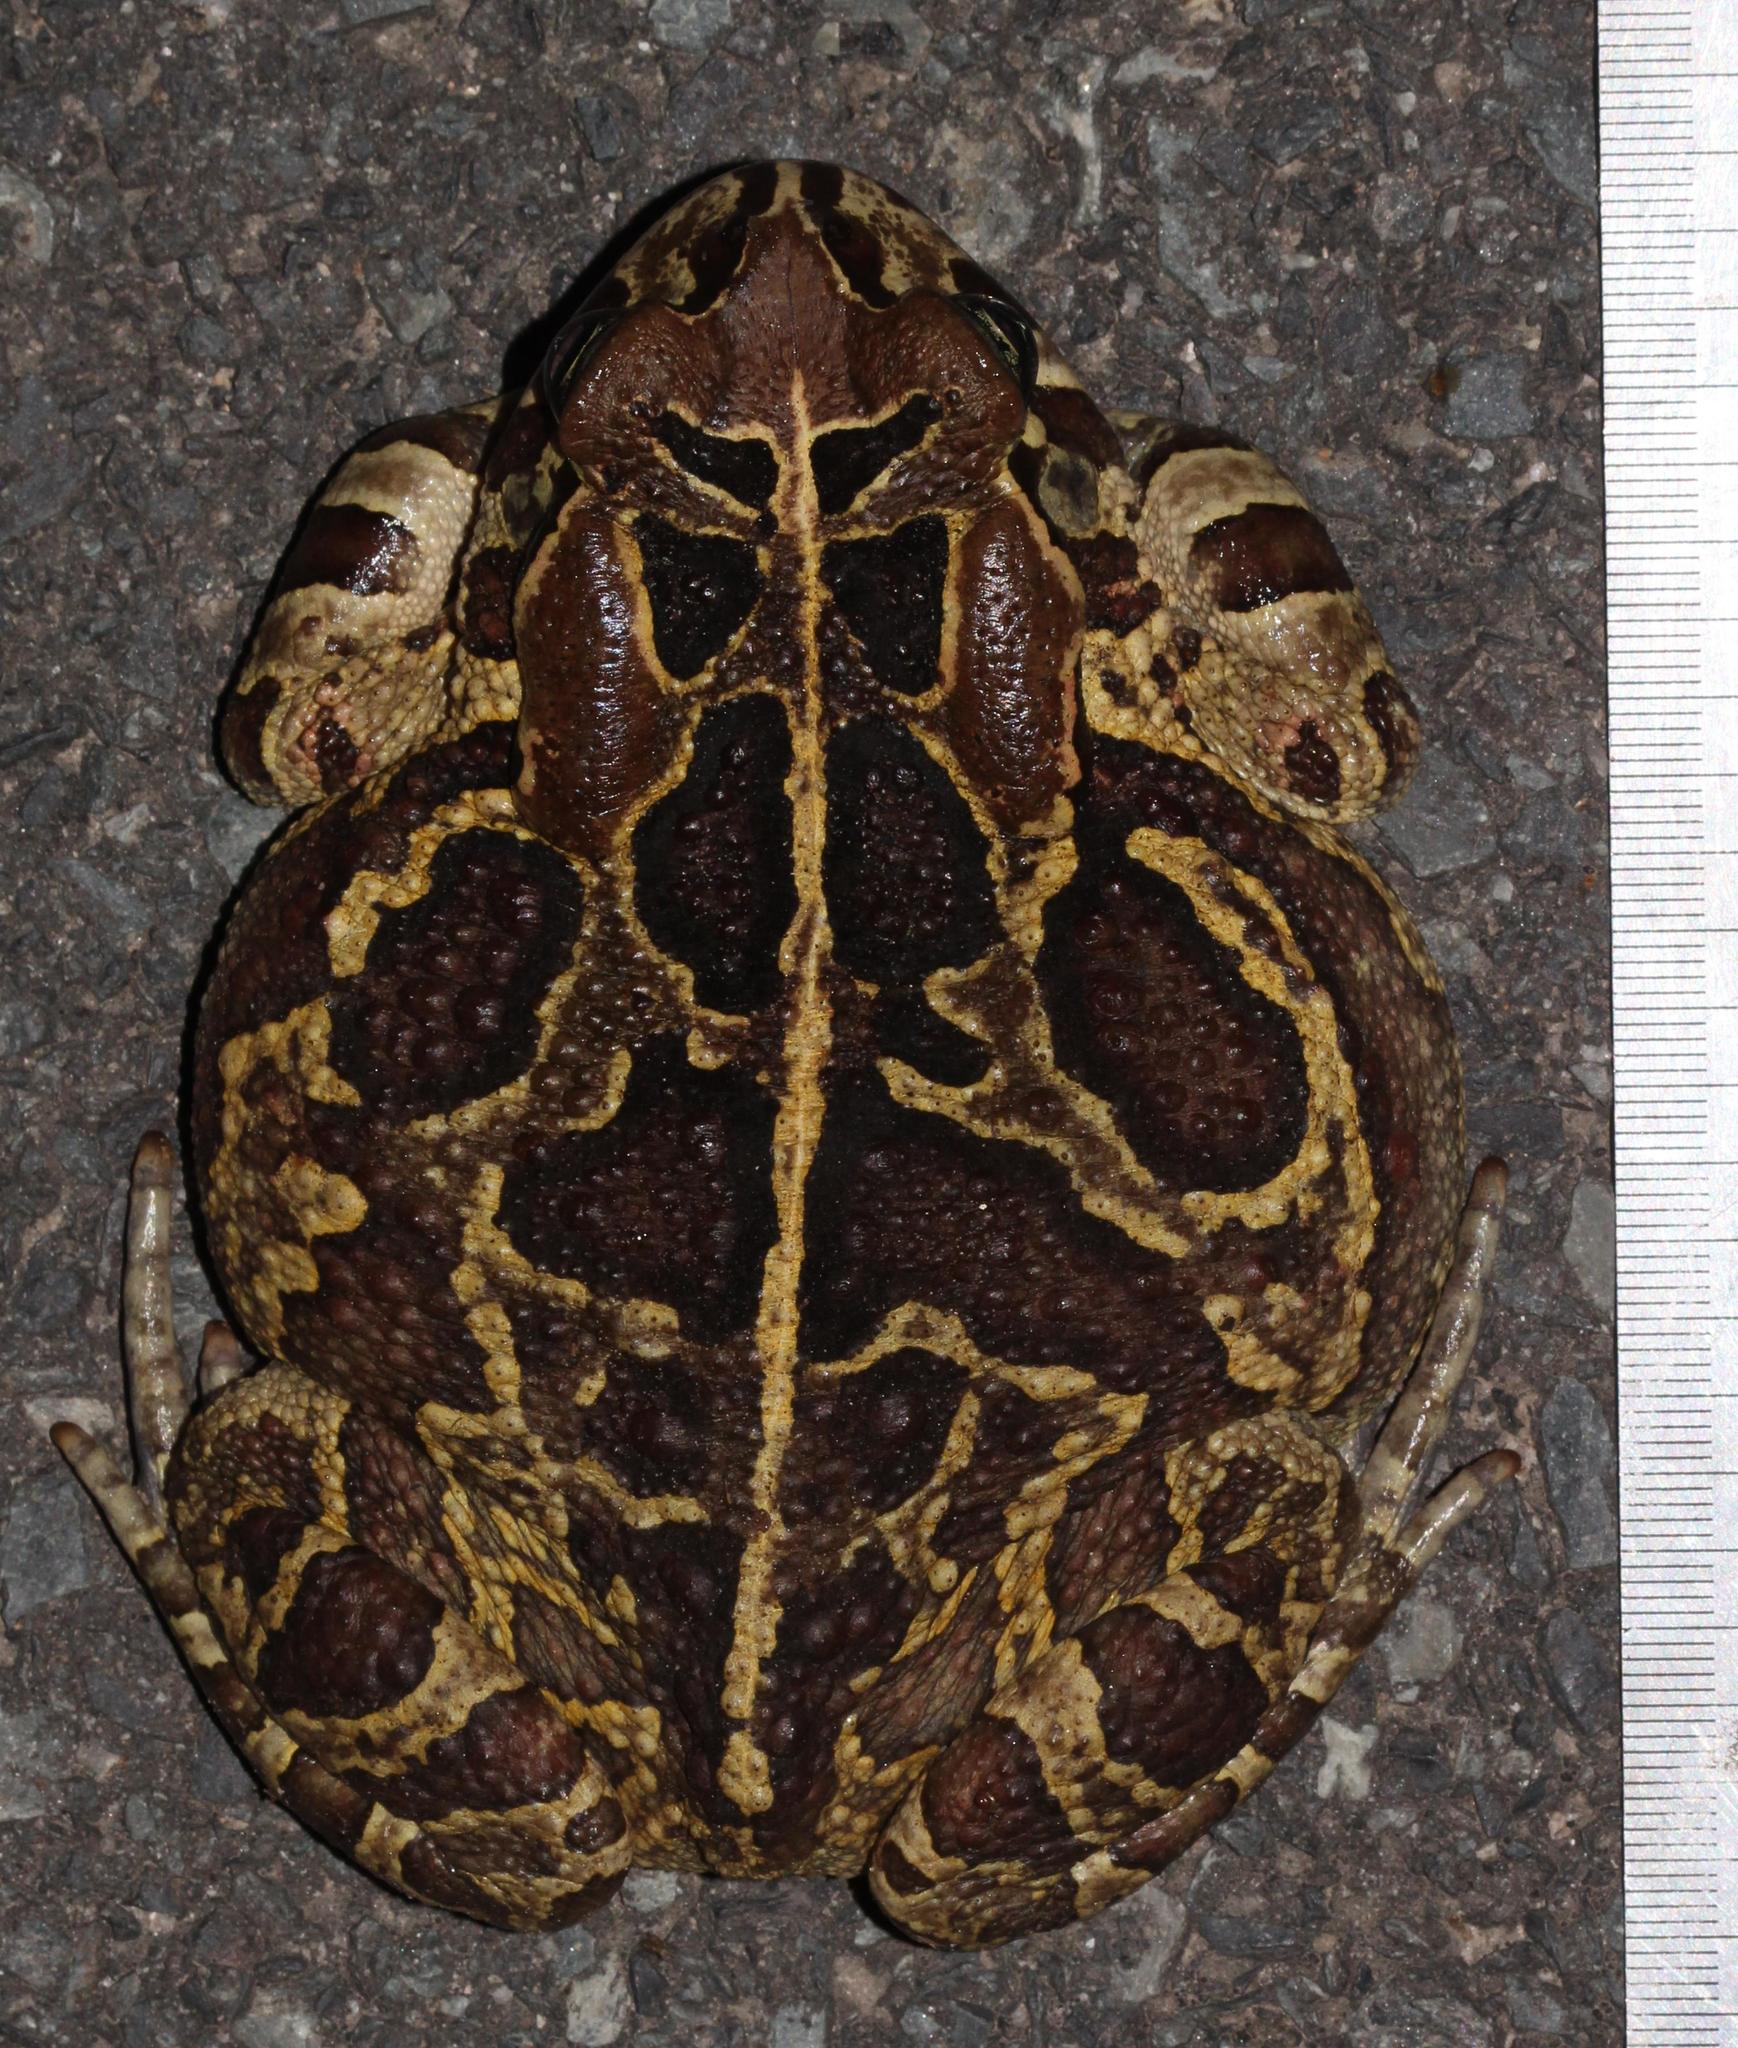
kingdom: Animalia
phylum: Chordata
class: Amphibia
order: Anura
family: Bufonidae
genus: Sclerophrys
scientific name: Sclerophrys pantherina
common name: Panther toad
